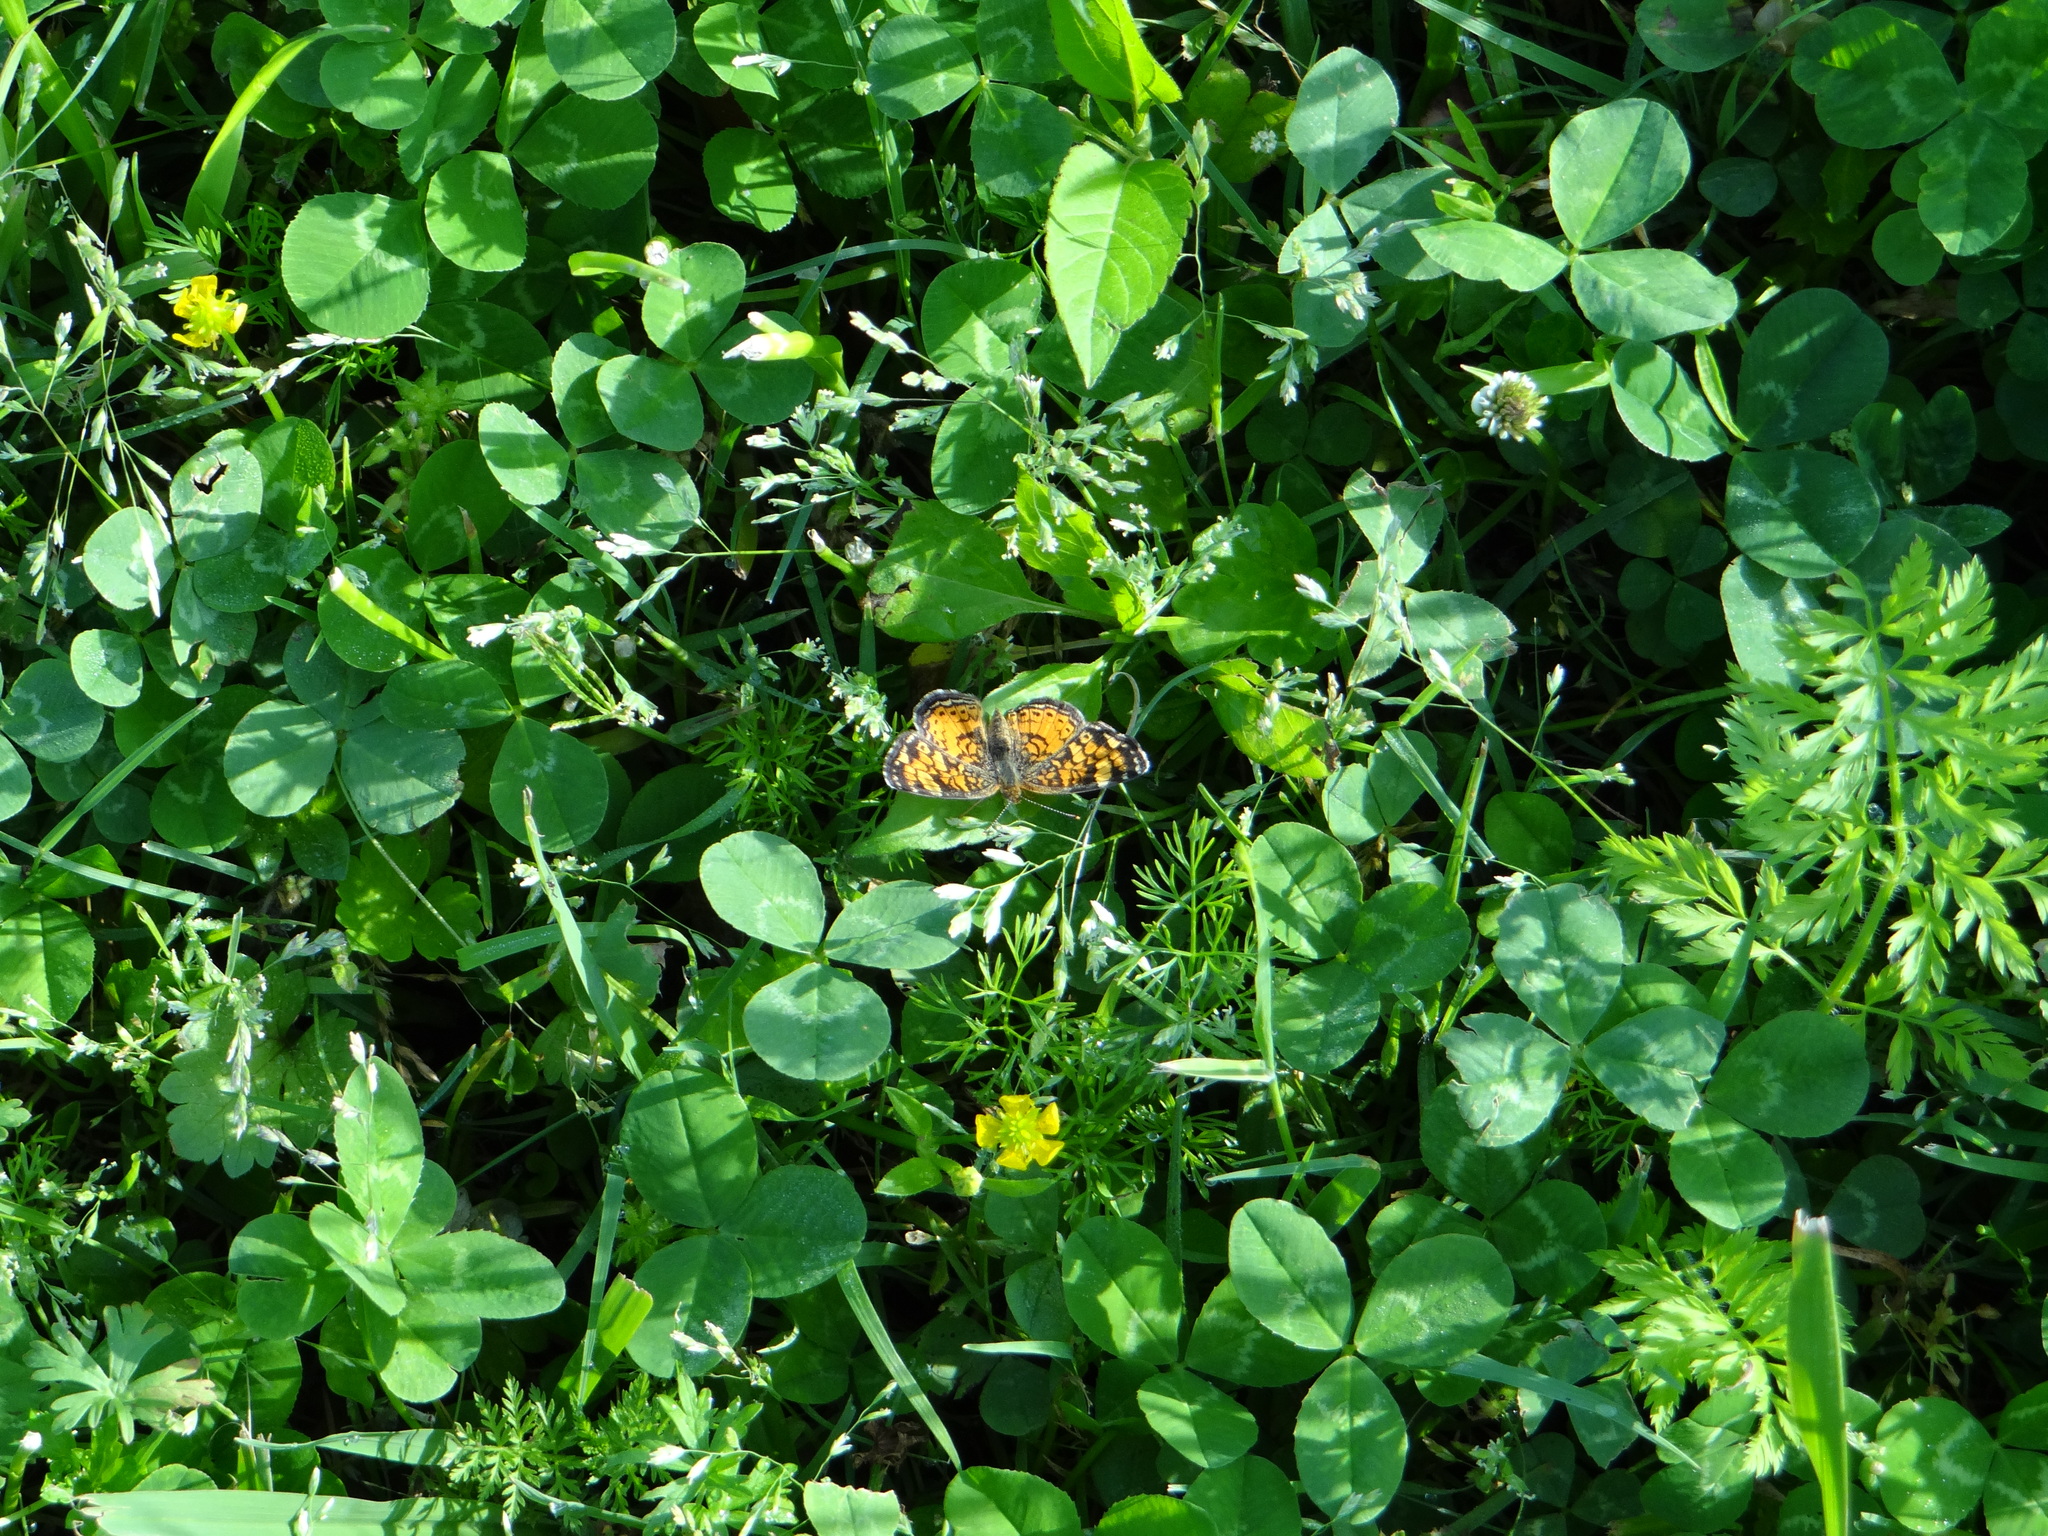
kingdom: Animalia
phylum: Arthropoda
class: Insecta
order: Lepidoptera
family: Nymphalidae
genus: Phyciodes
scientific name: Phyciodes tharos
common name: Pearl crescent
